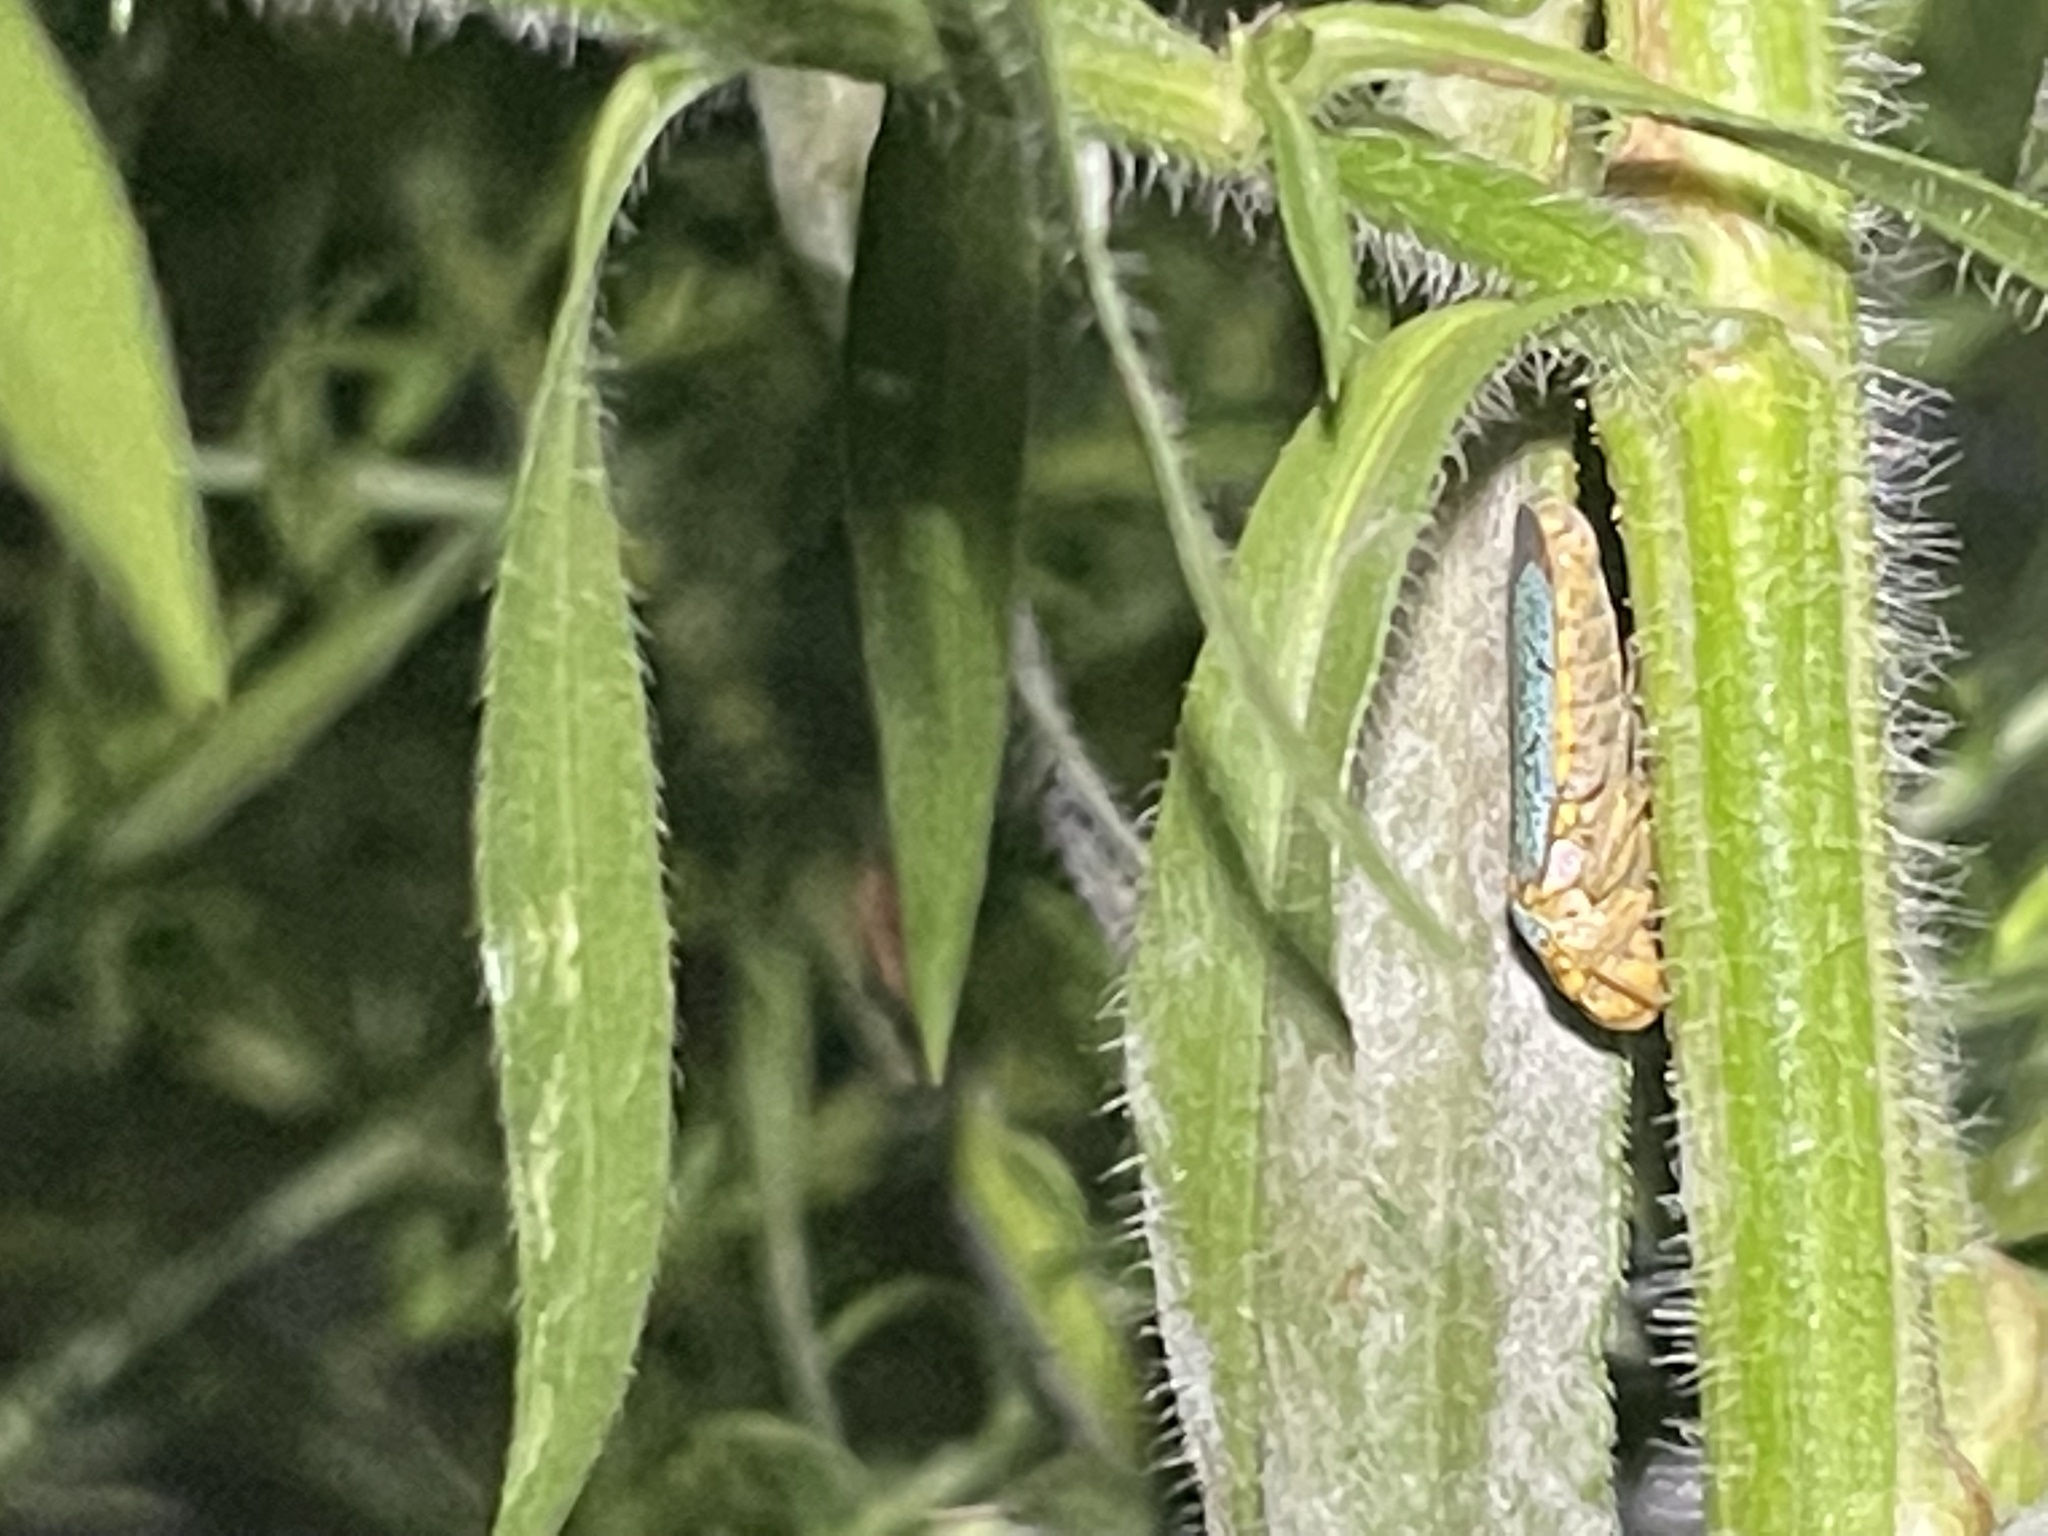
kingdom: Animalia
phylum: Arthropoda
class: Insecta
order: Hemiptera
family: Cicadellidae
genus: Oncometopia
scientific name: Oncometopia orbona
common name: Broad-headed sharpshooter
